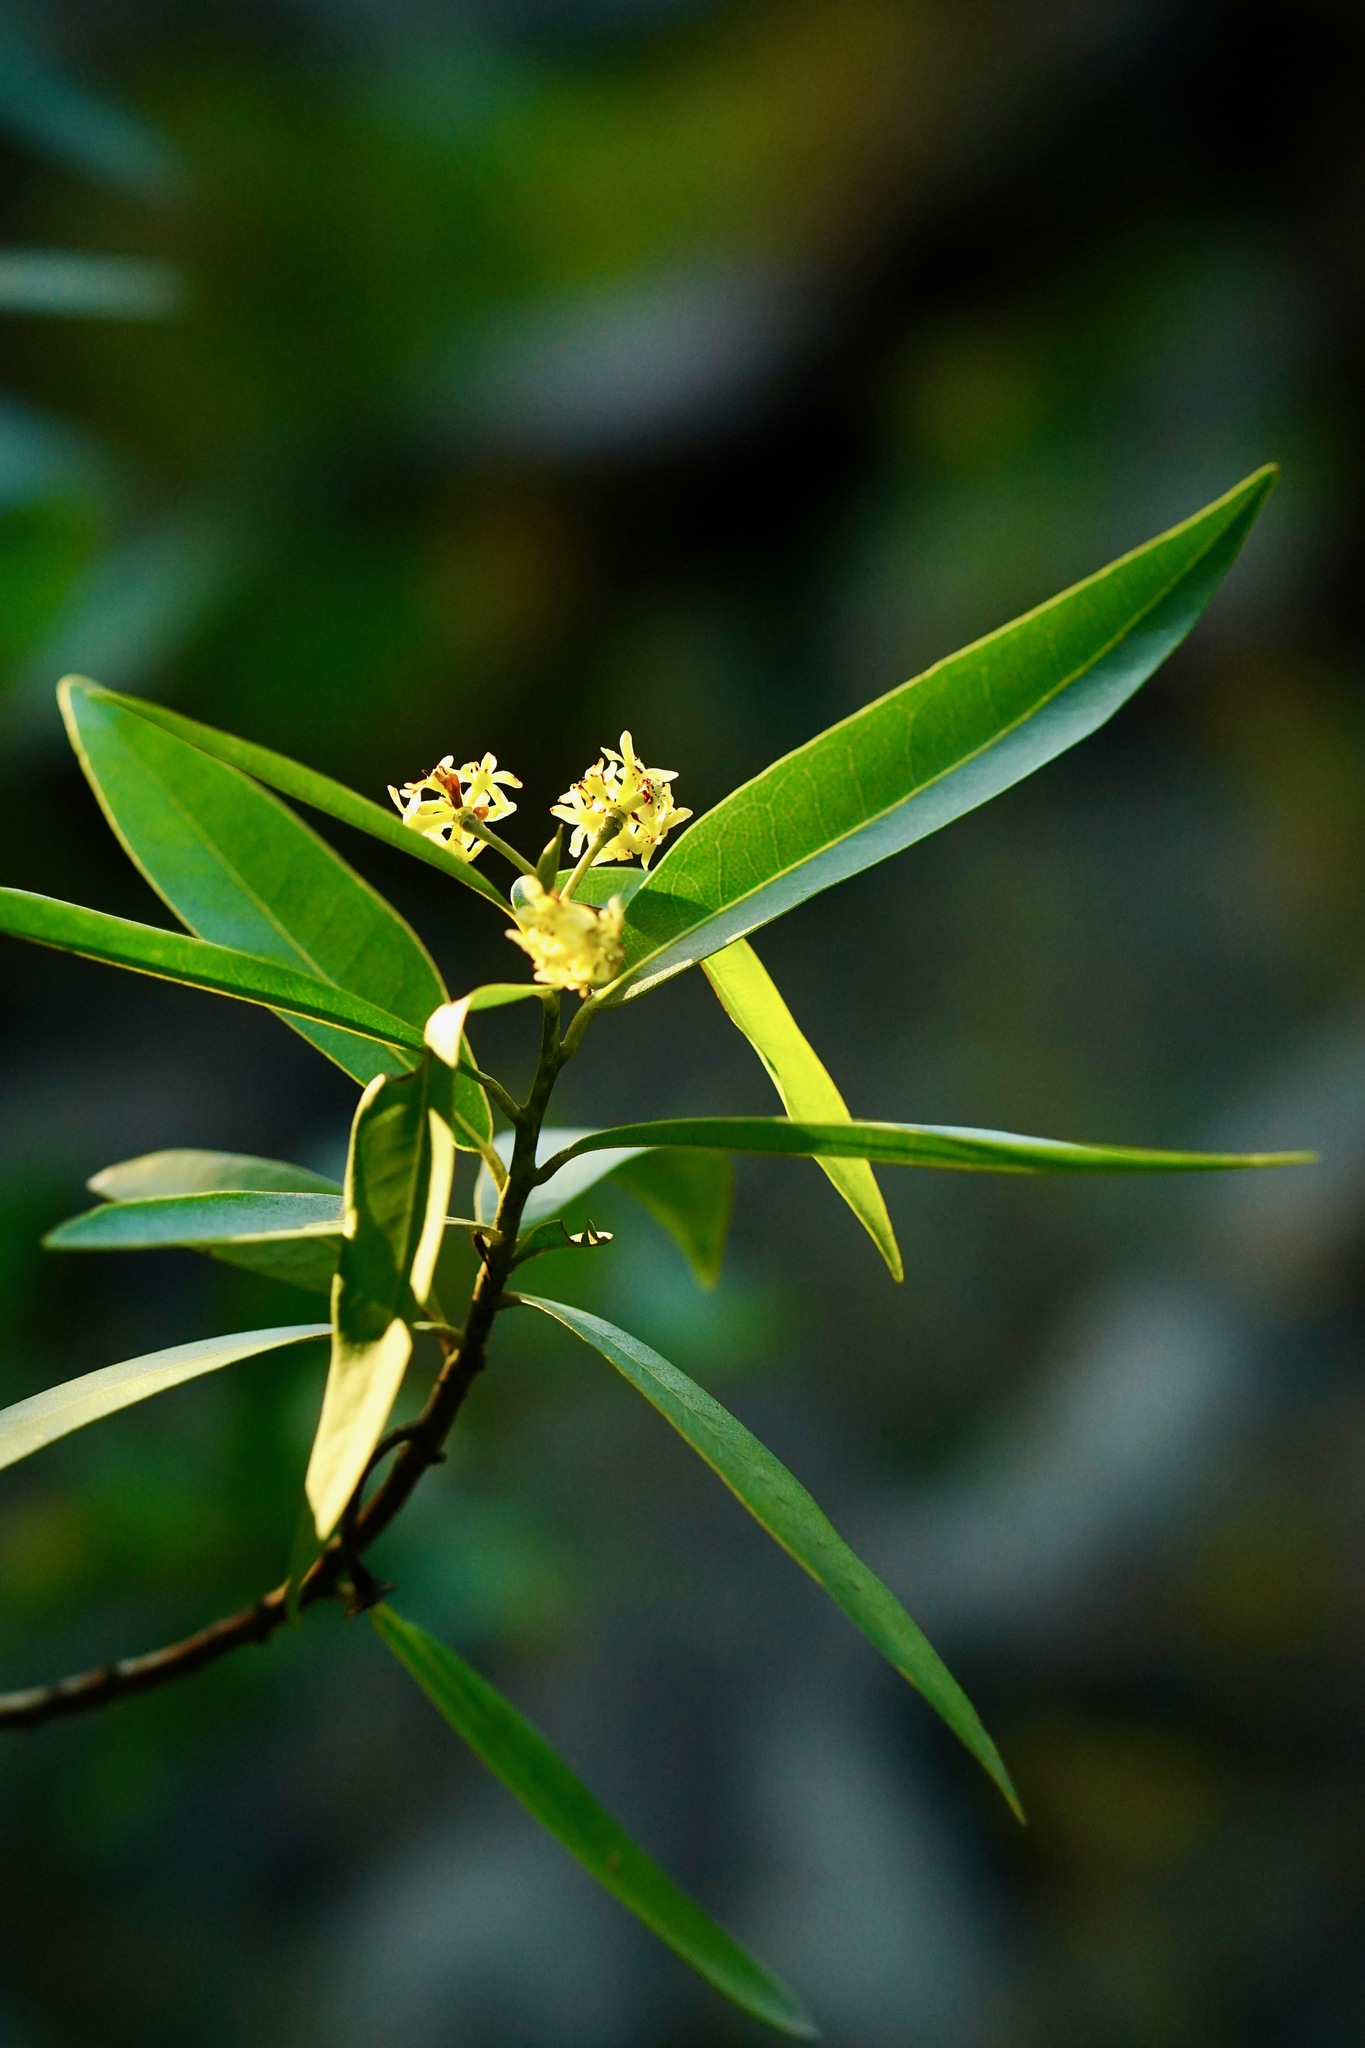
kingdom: Plantae
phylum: Tracheophyta
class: Magnoliopsida
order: Laurales
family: Lauraceae
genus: Umbellularia
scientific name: Umbellularia californica
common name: California bay
